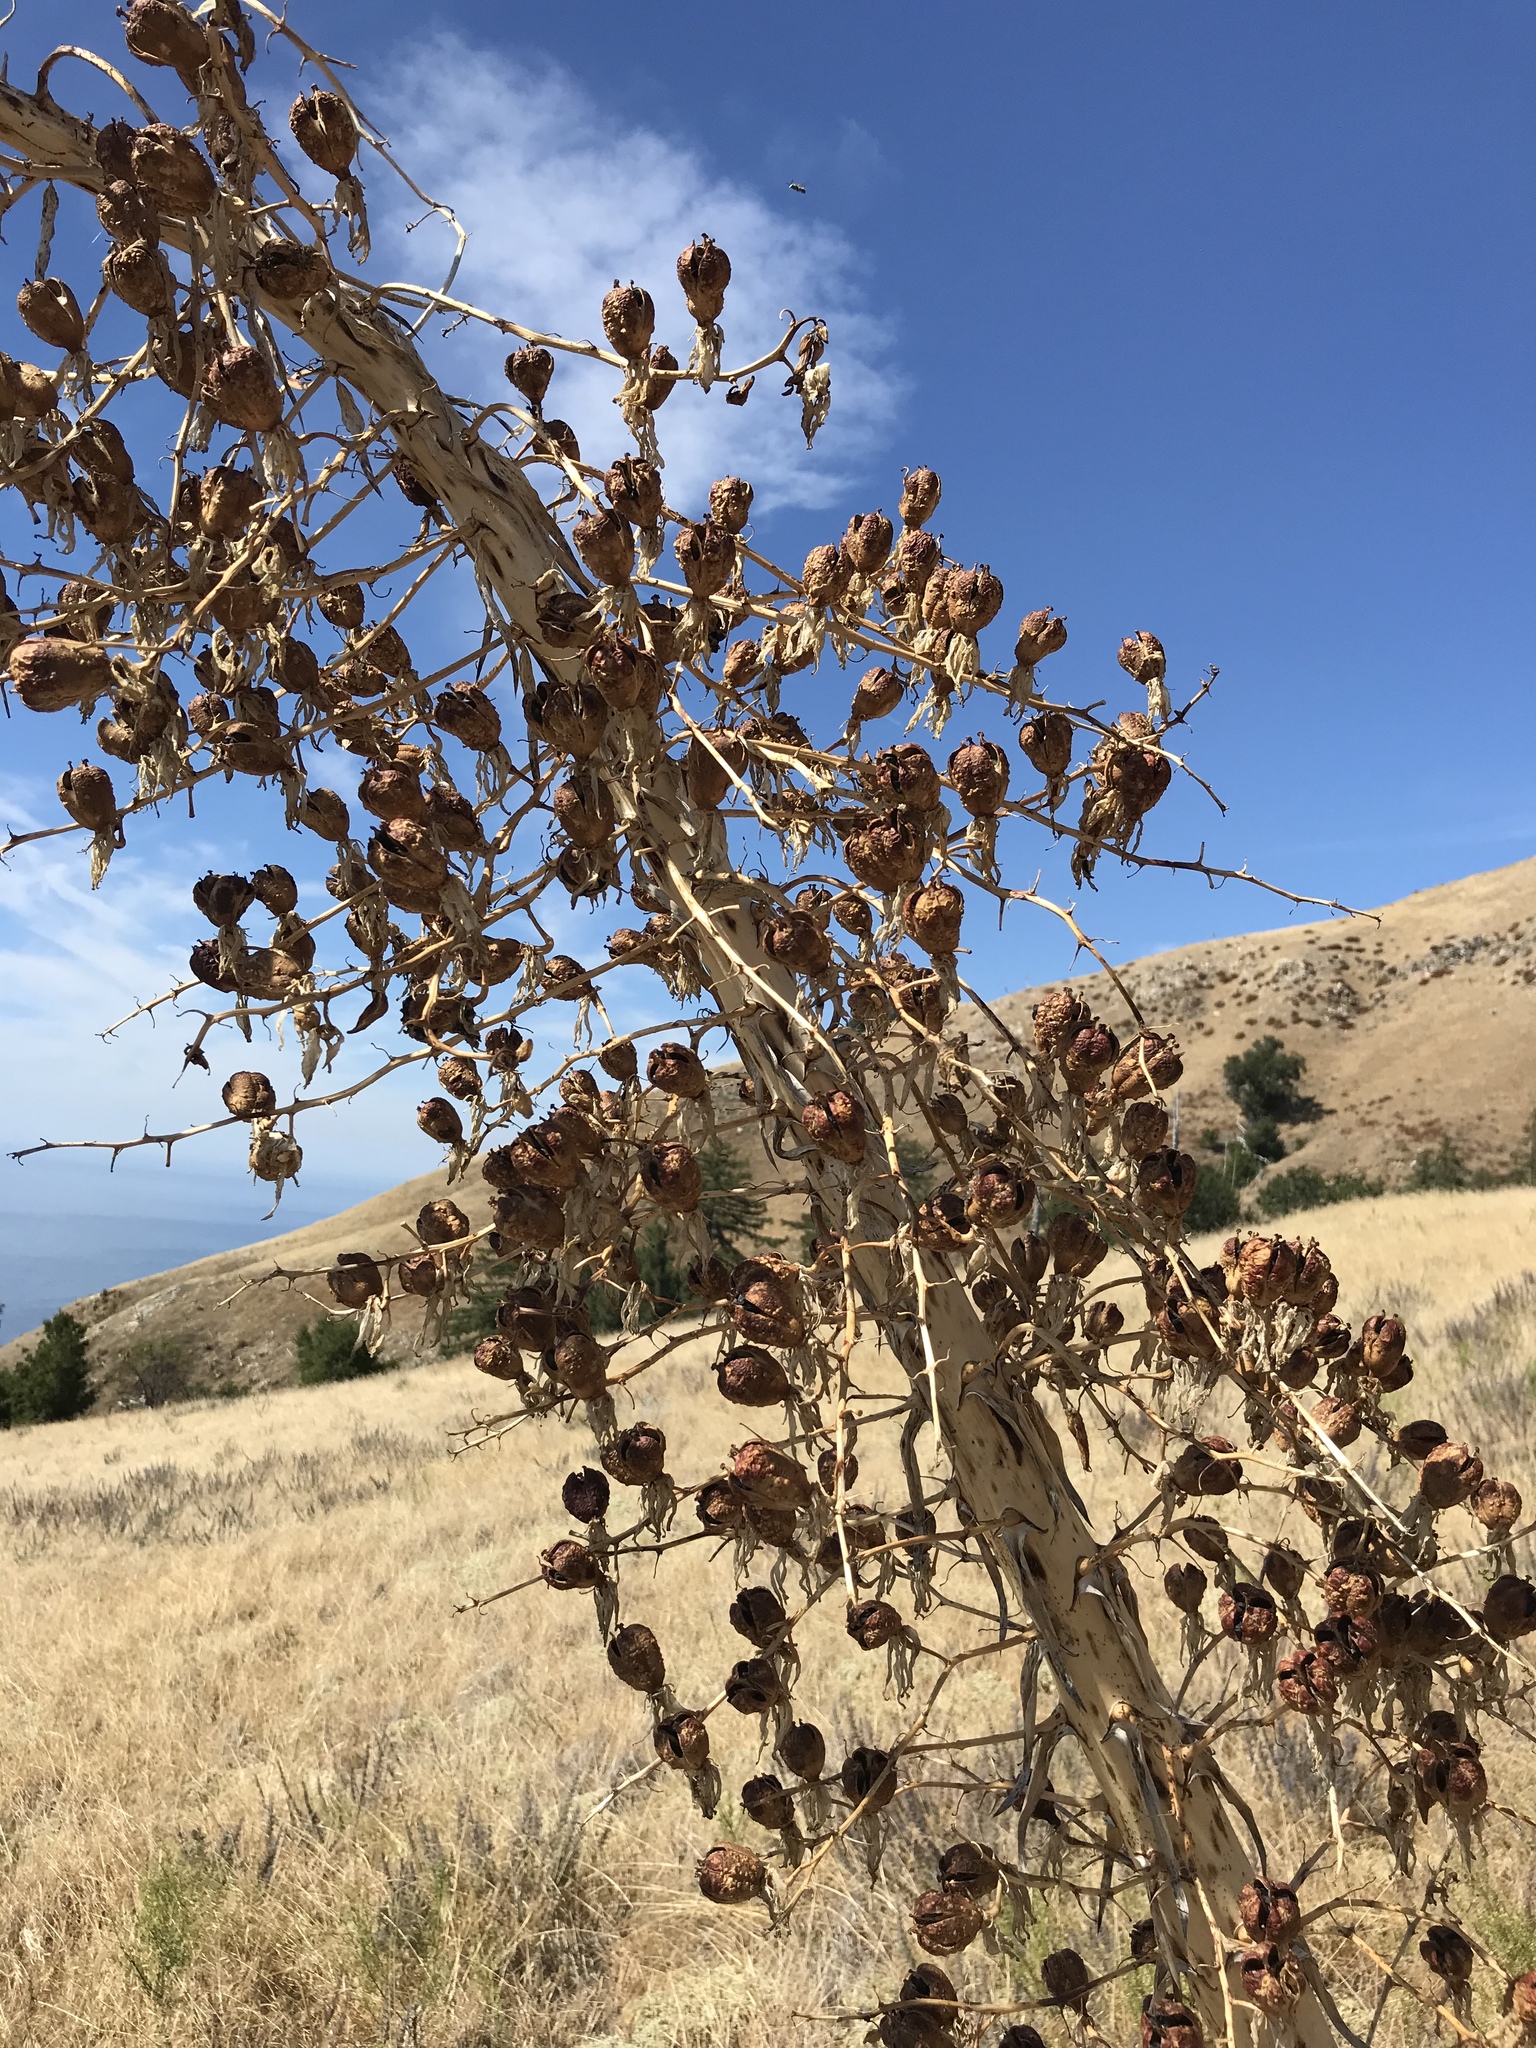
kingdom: Plantae
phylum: Tracheophyta
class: Liliopsida
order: Asparagales
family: Asparagaceae
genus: Hesperoyucca
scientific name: Hesperoyucca whipplei
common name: Our lord's-candle
